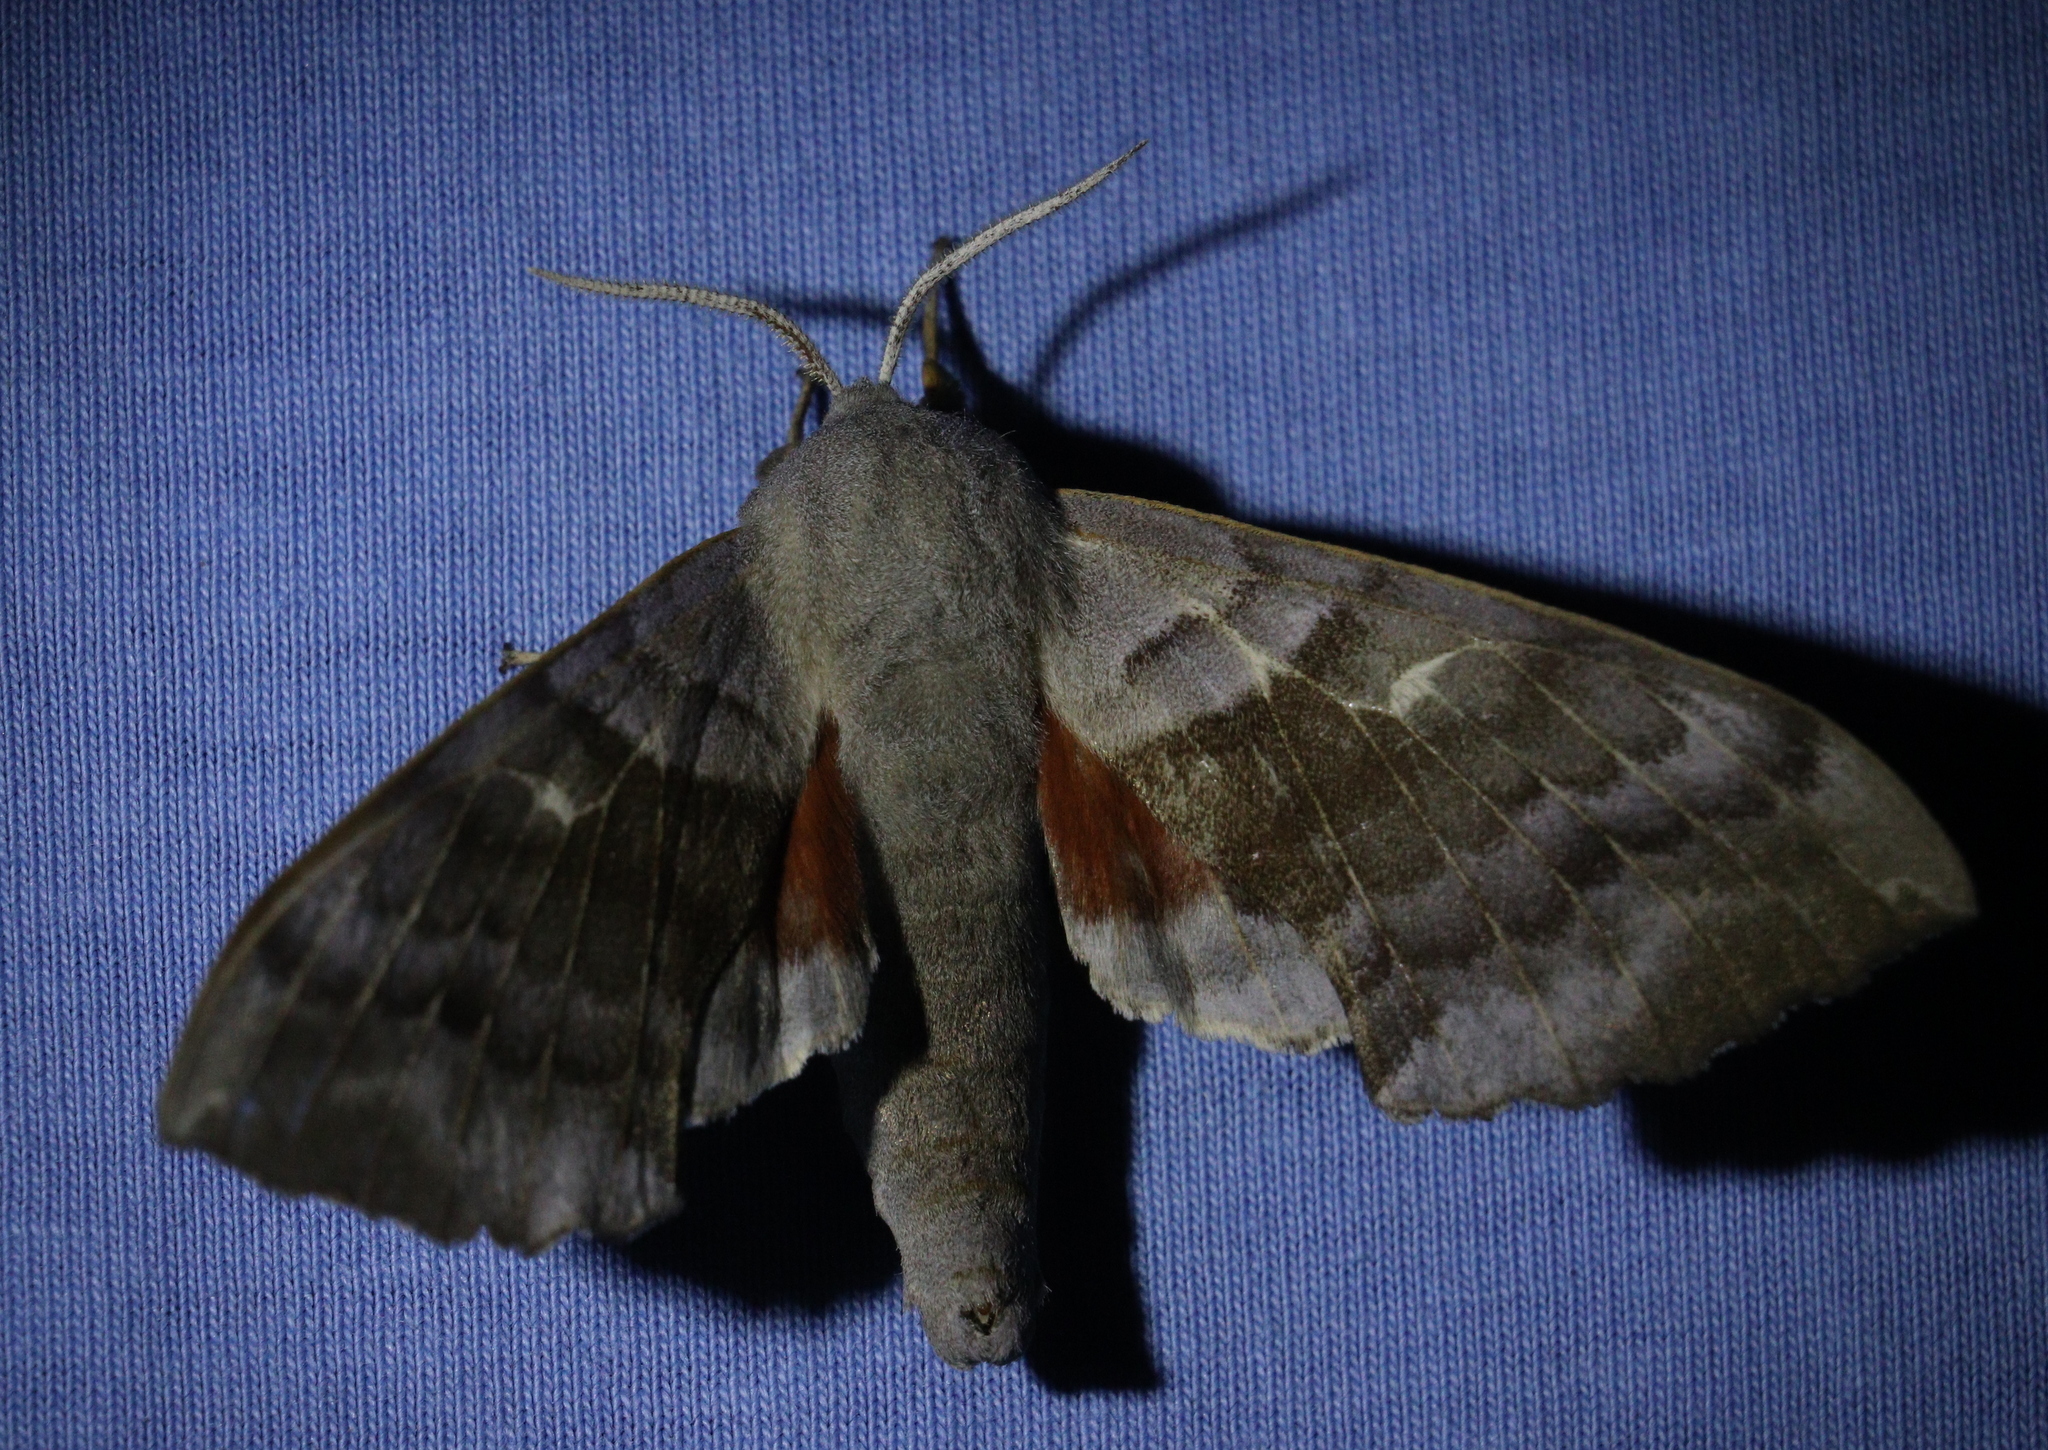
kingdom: Animalia
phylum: Arthropoda
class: Insecta
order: Lepidoptera
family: Sphingidae
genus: Laothoe
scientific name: Laothoe populi
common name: Poplar hawk-moth
